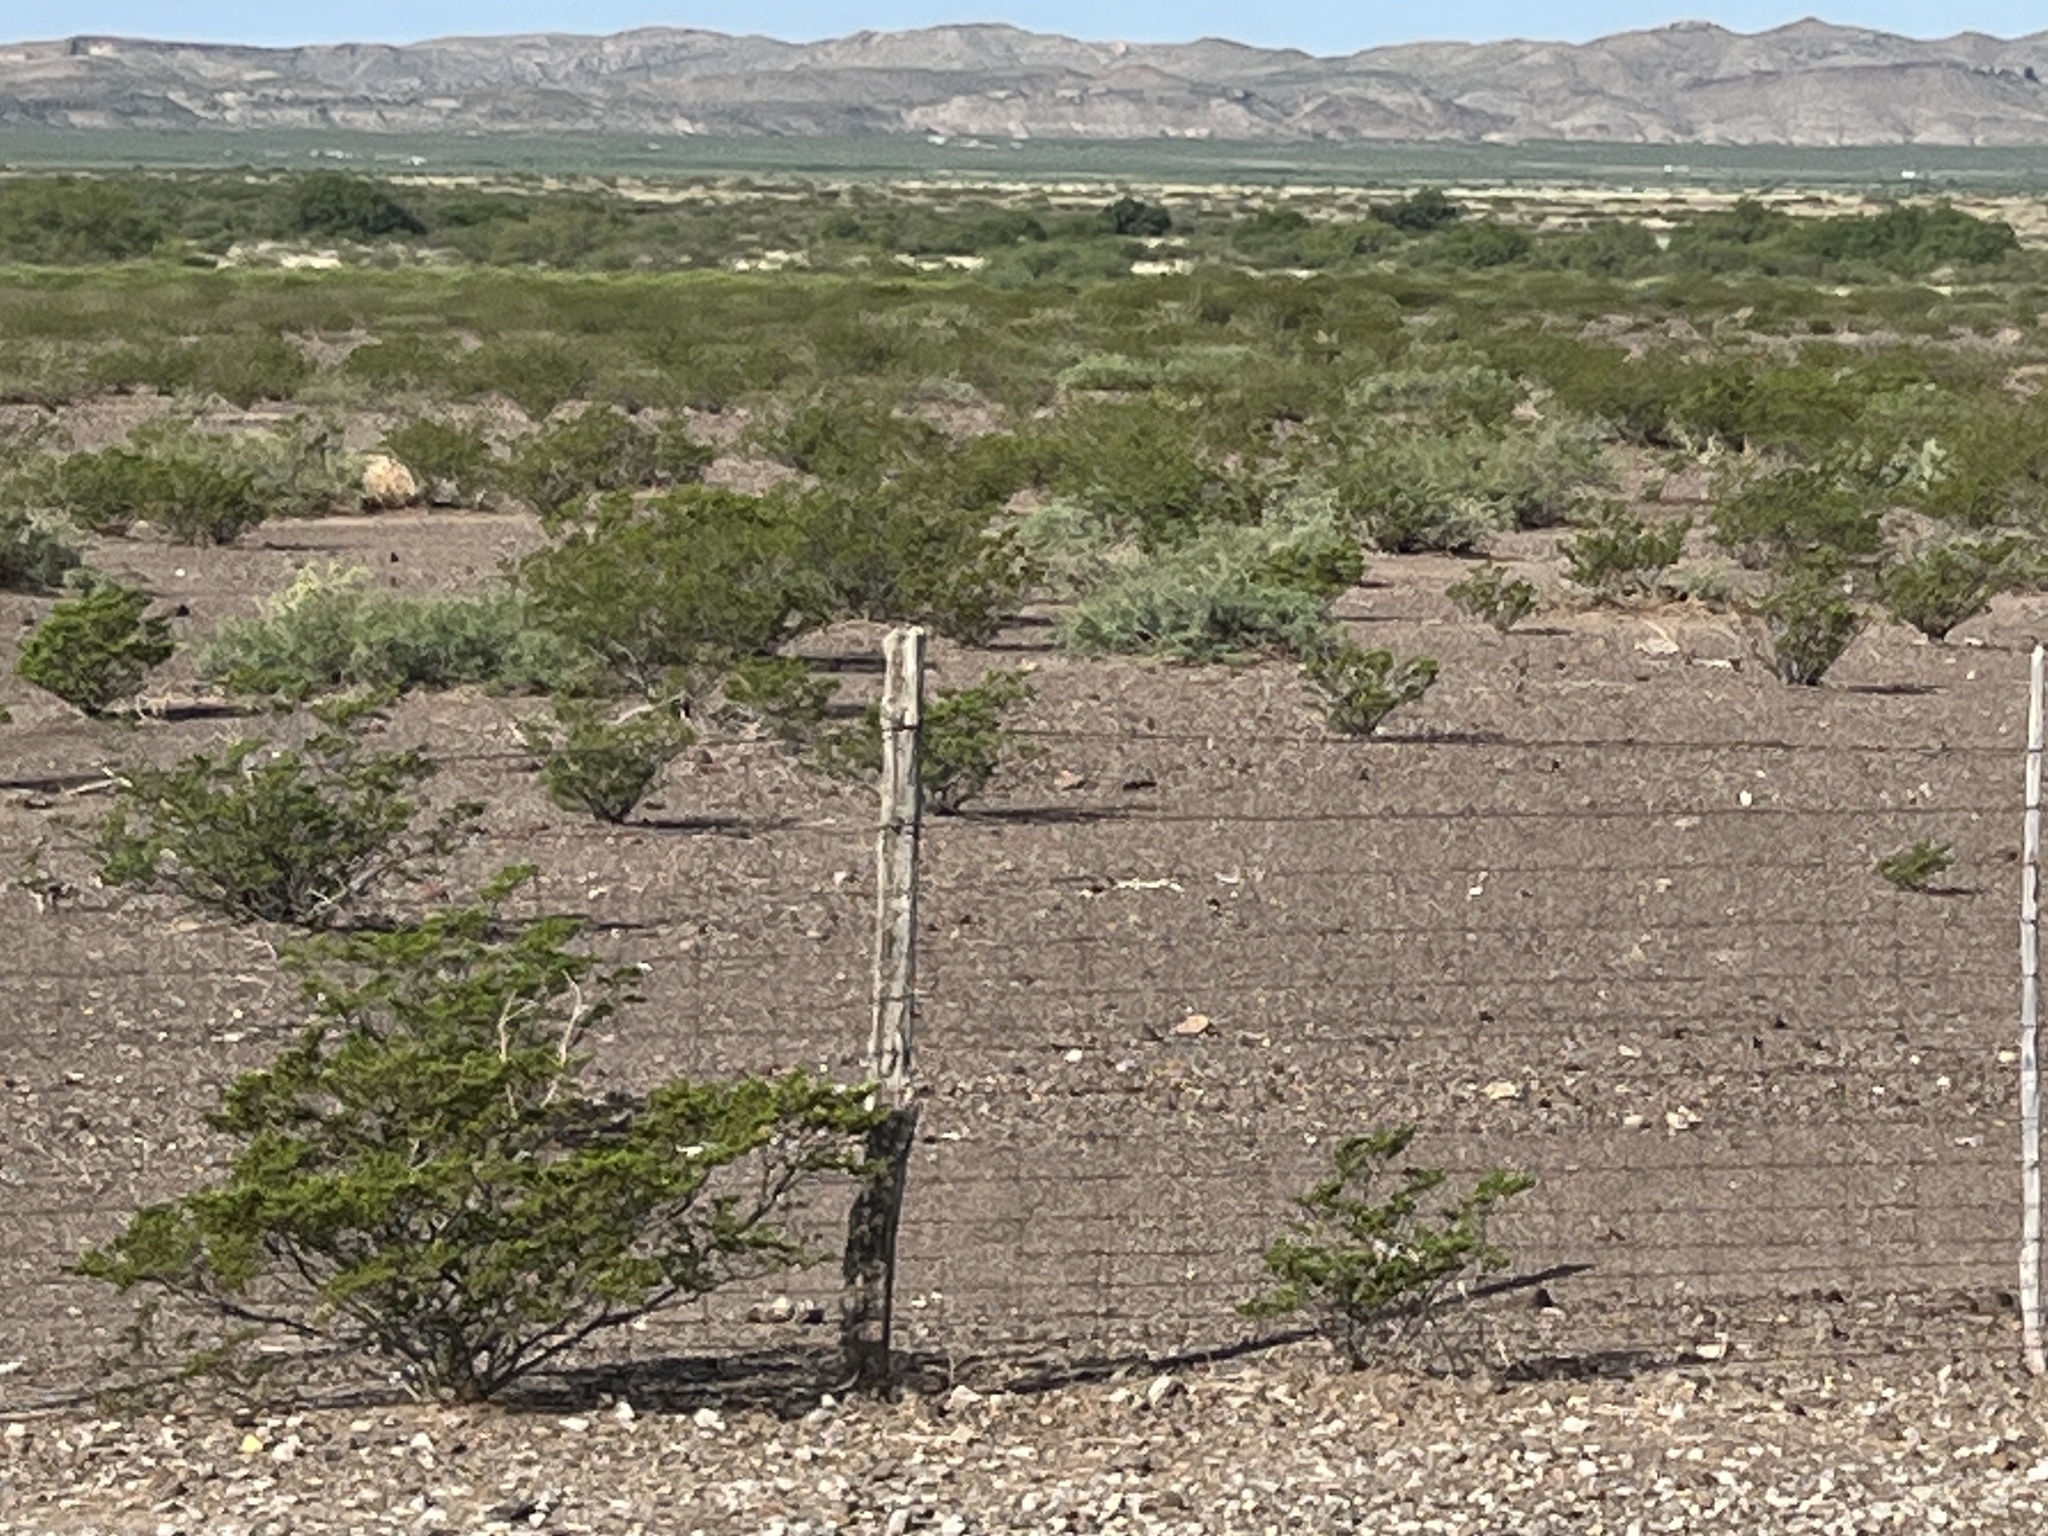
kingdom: Plantae
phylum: Tracheophyta
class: Magnoliopsida
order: Zygophyllales
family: Zygophyllaceae
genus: Larrea
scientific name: Larrea tridentata
